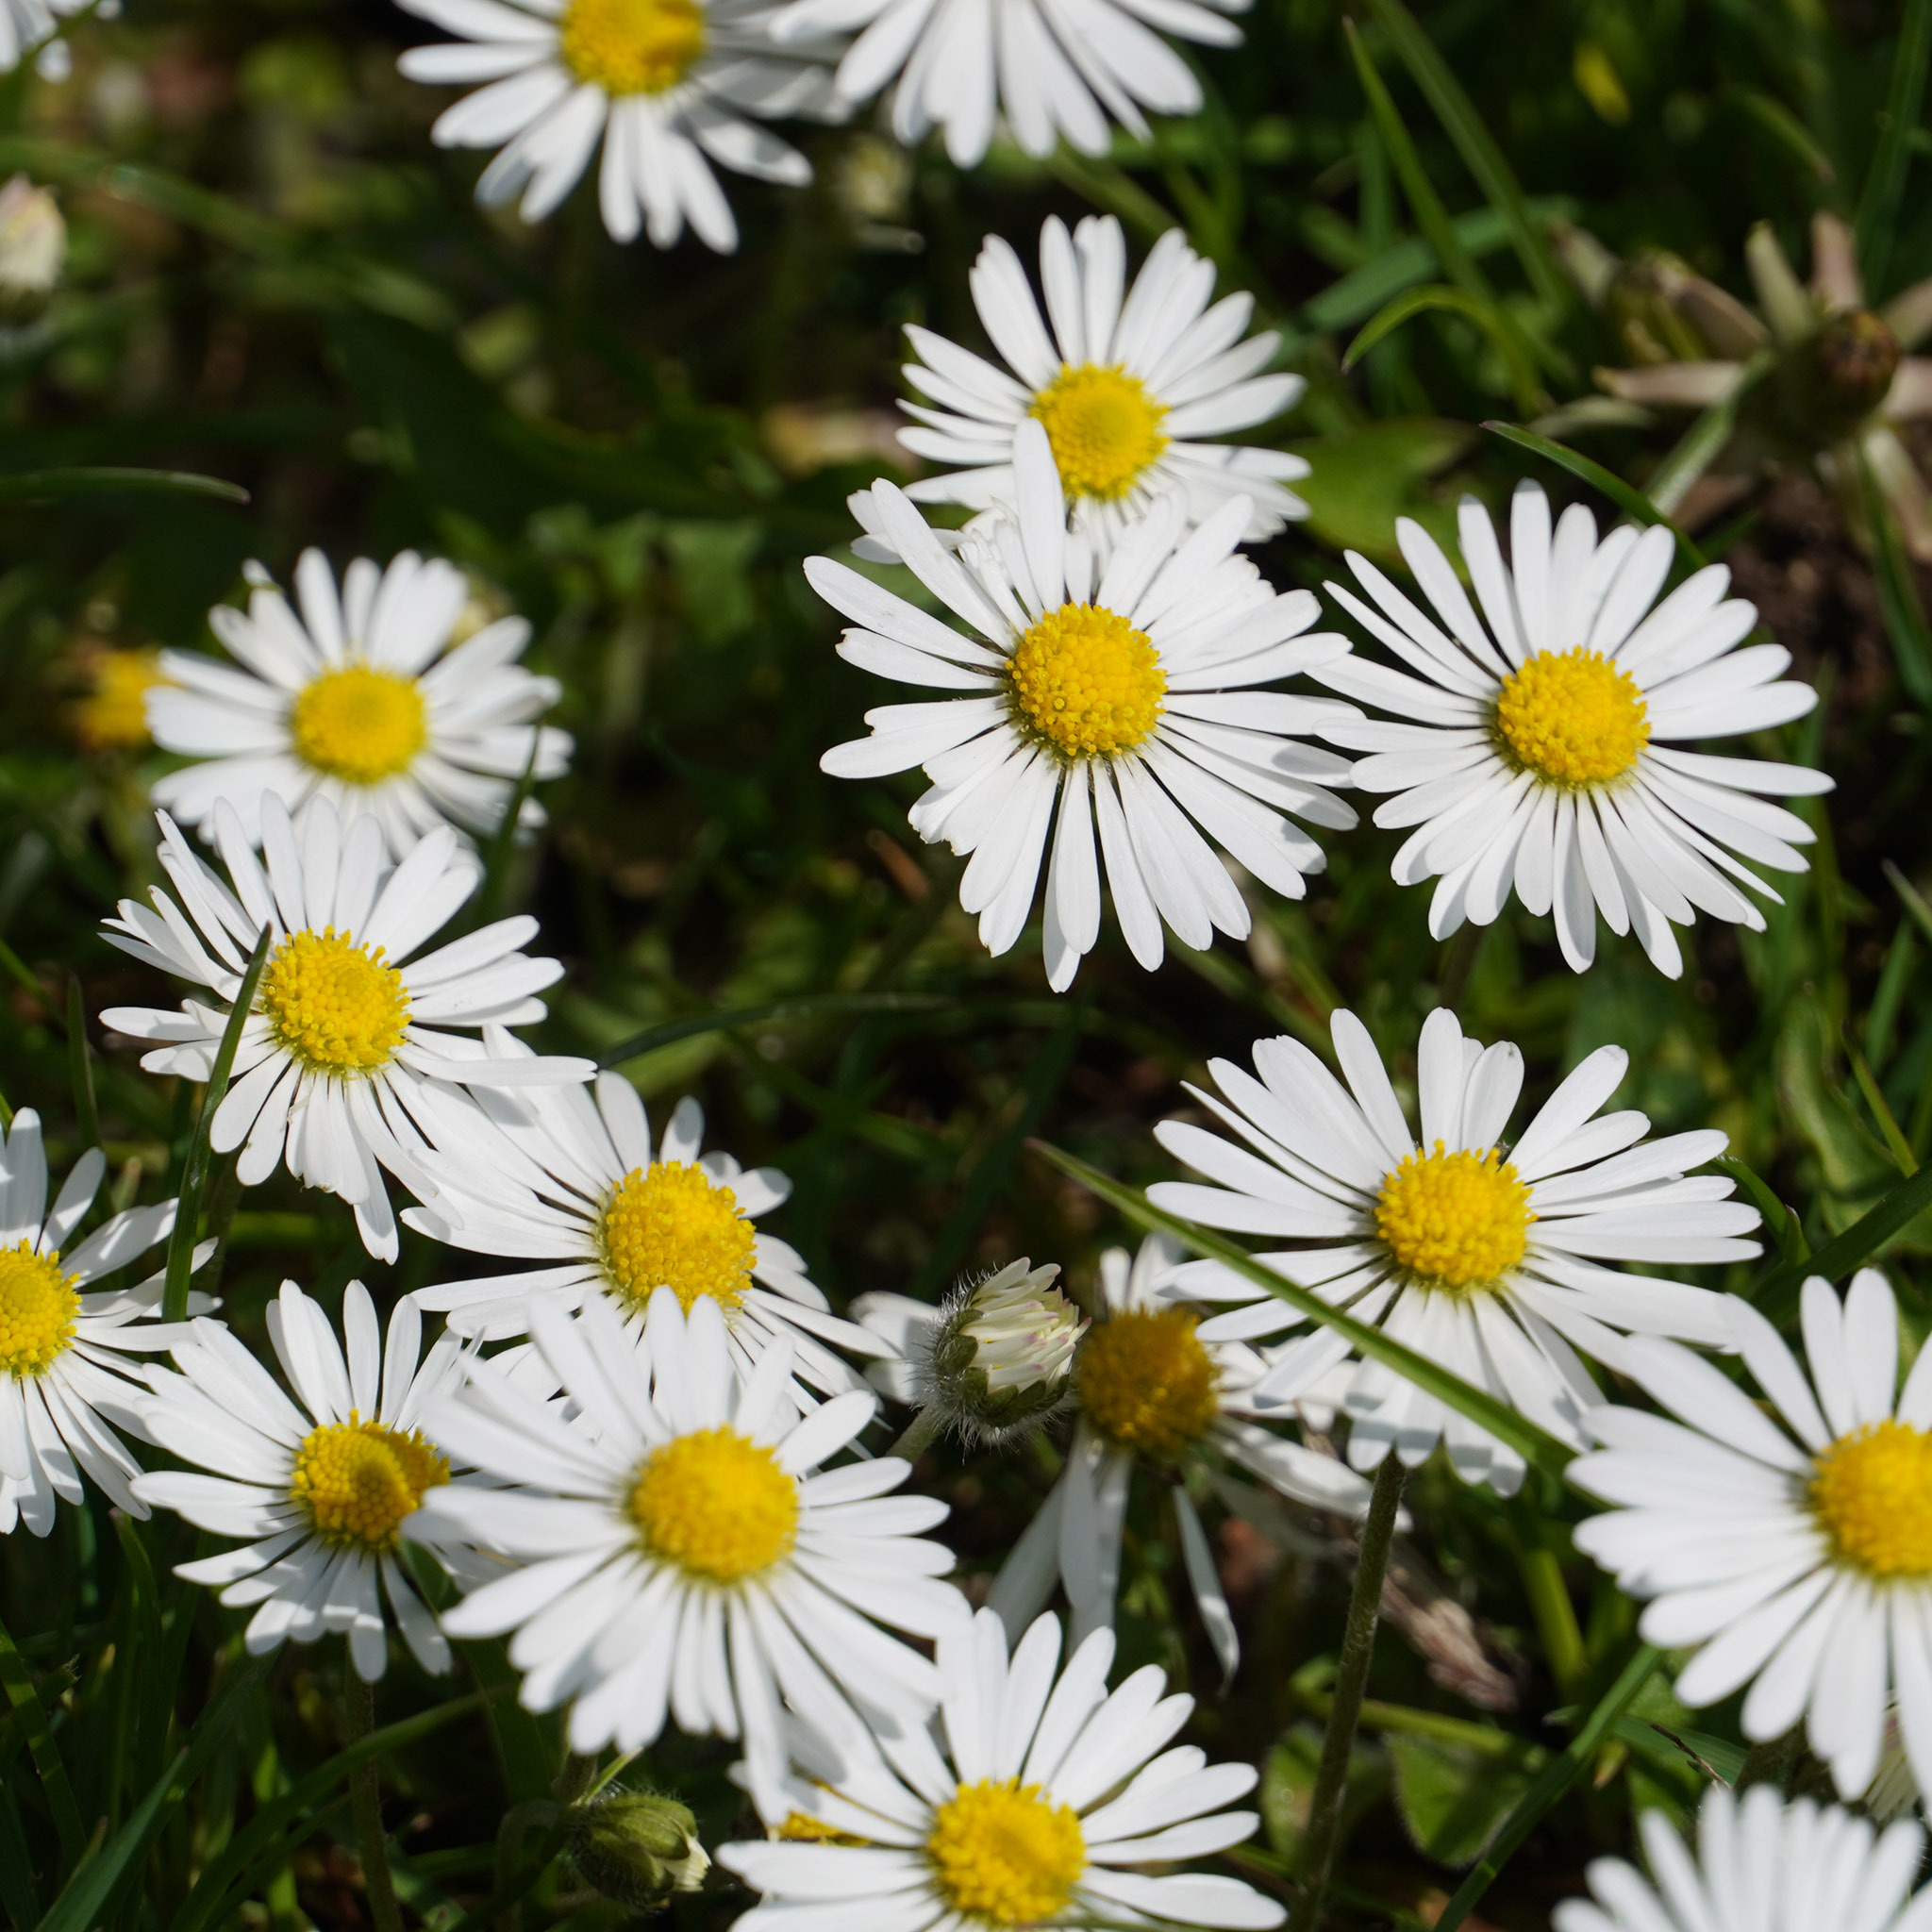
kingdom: Plantae
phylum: Tracheophyta
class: Magnoliopsida
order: Asterales
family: Asteraceae
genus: Bellis
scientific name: Bellis perennis
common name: Lawndaisy
